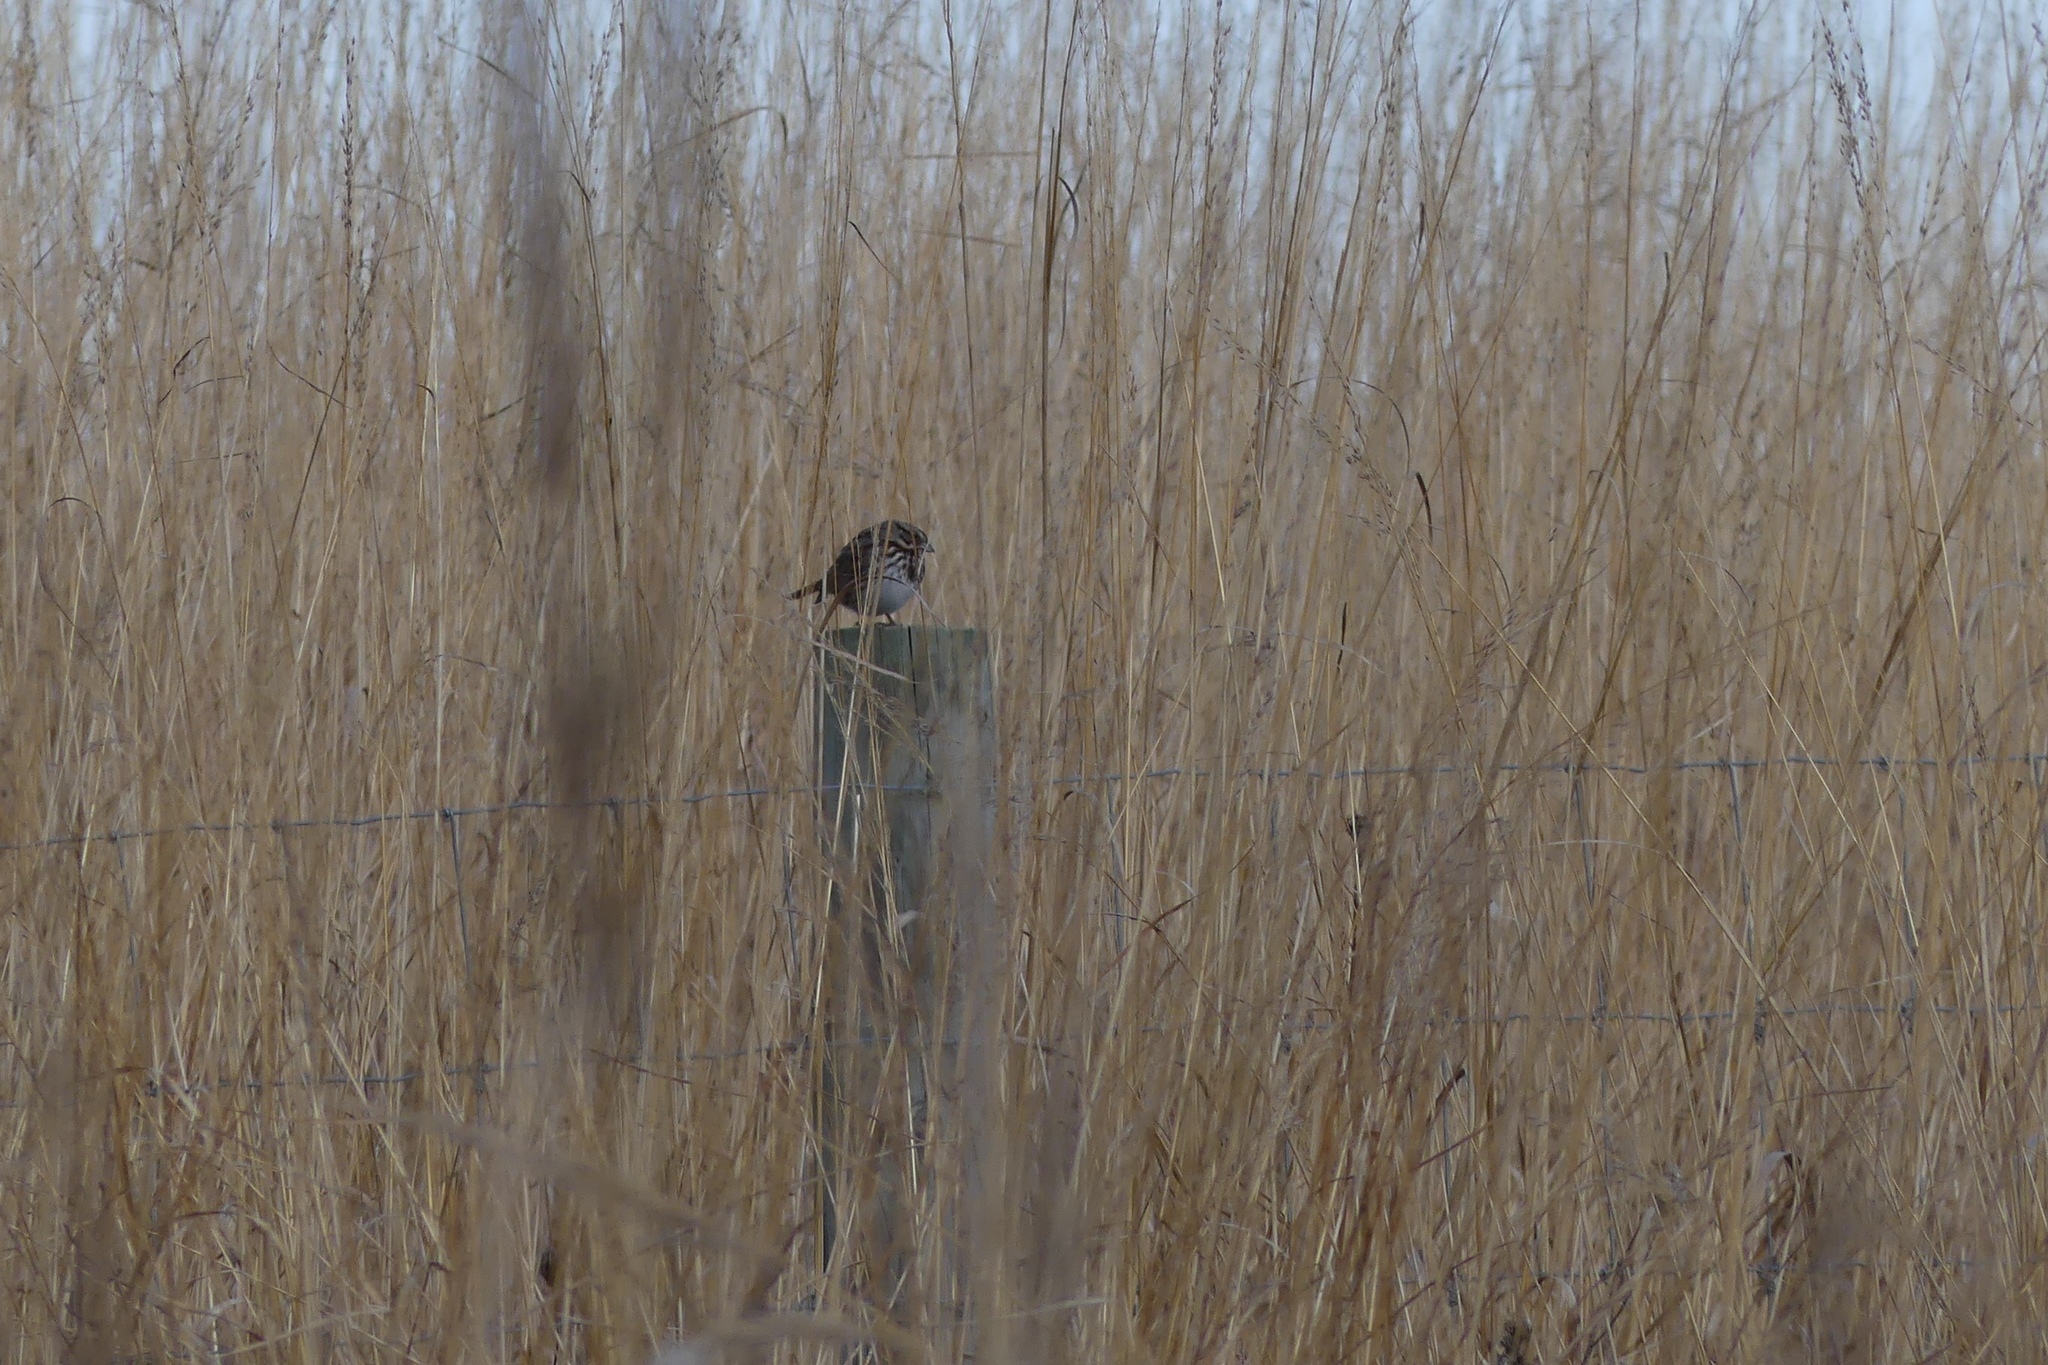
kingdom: Animalia
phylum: Chordata
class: Aves
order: Passeriformes
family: Passerellidae
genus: Melospiza
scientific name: Melospiza melodia
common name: Song sparrow
